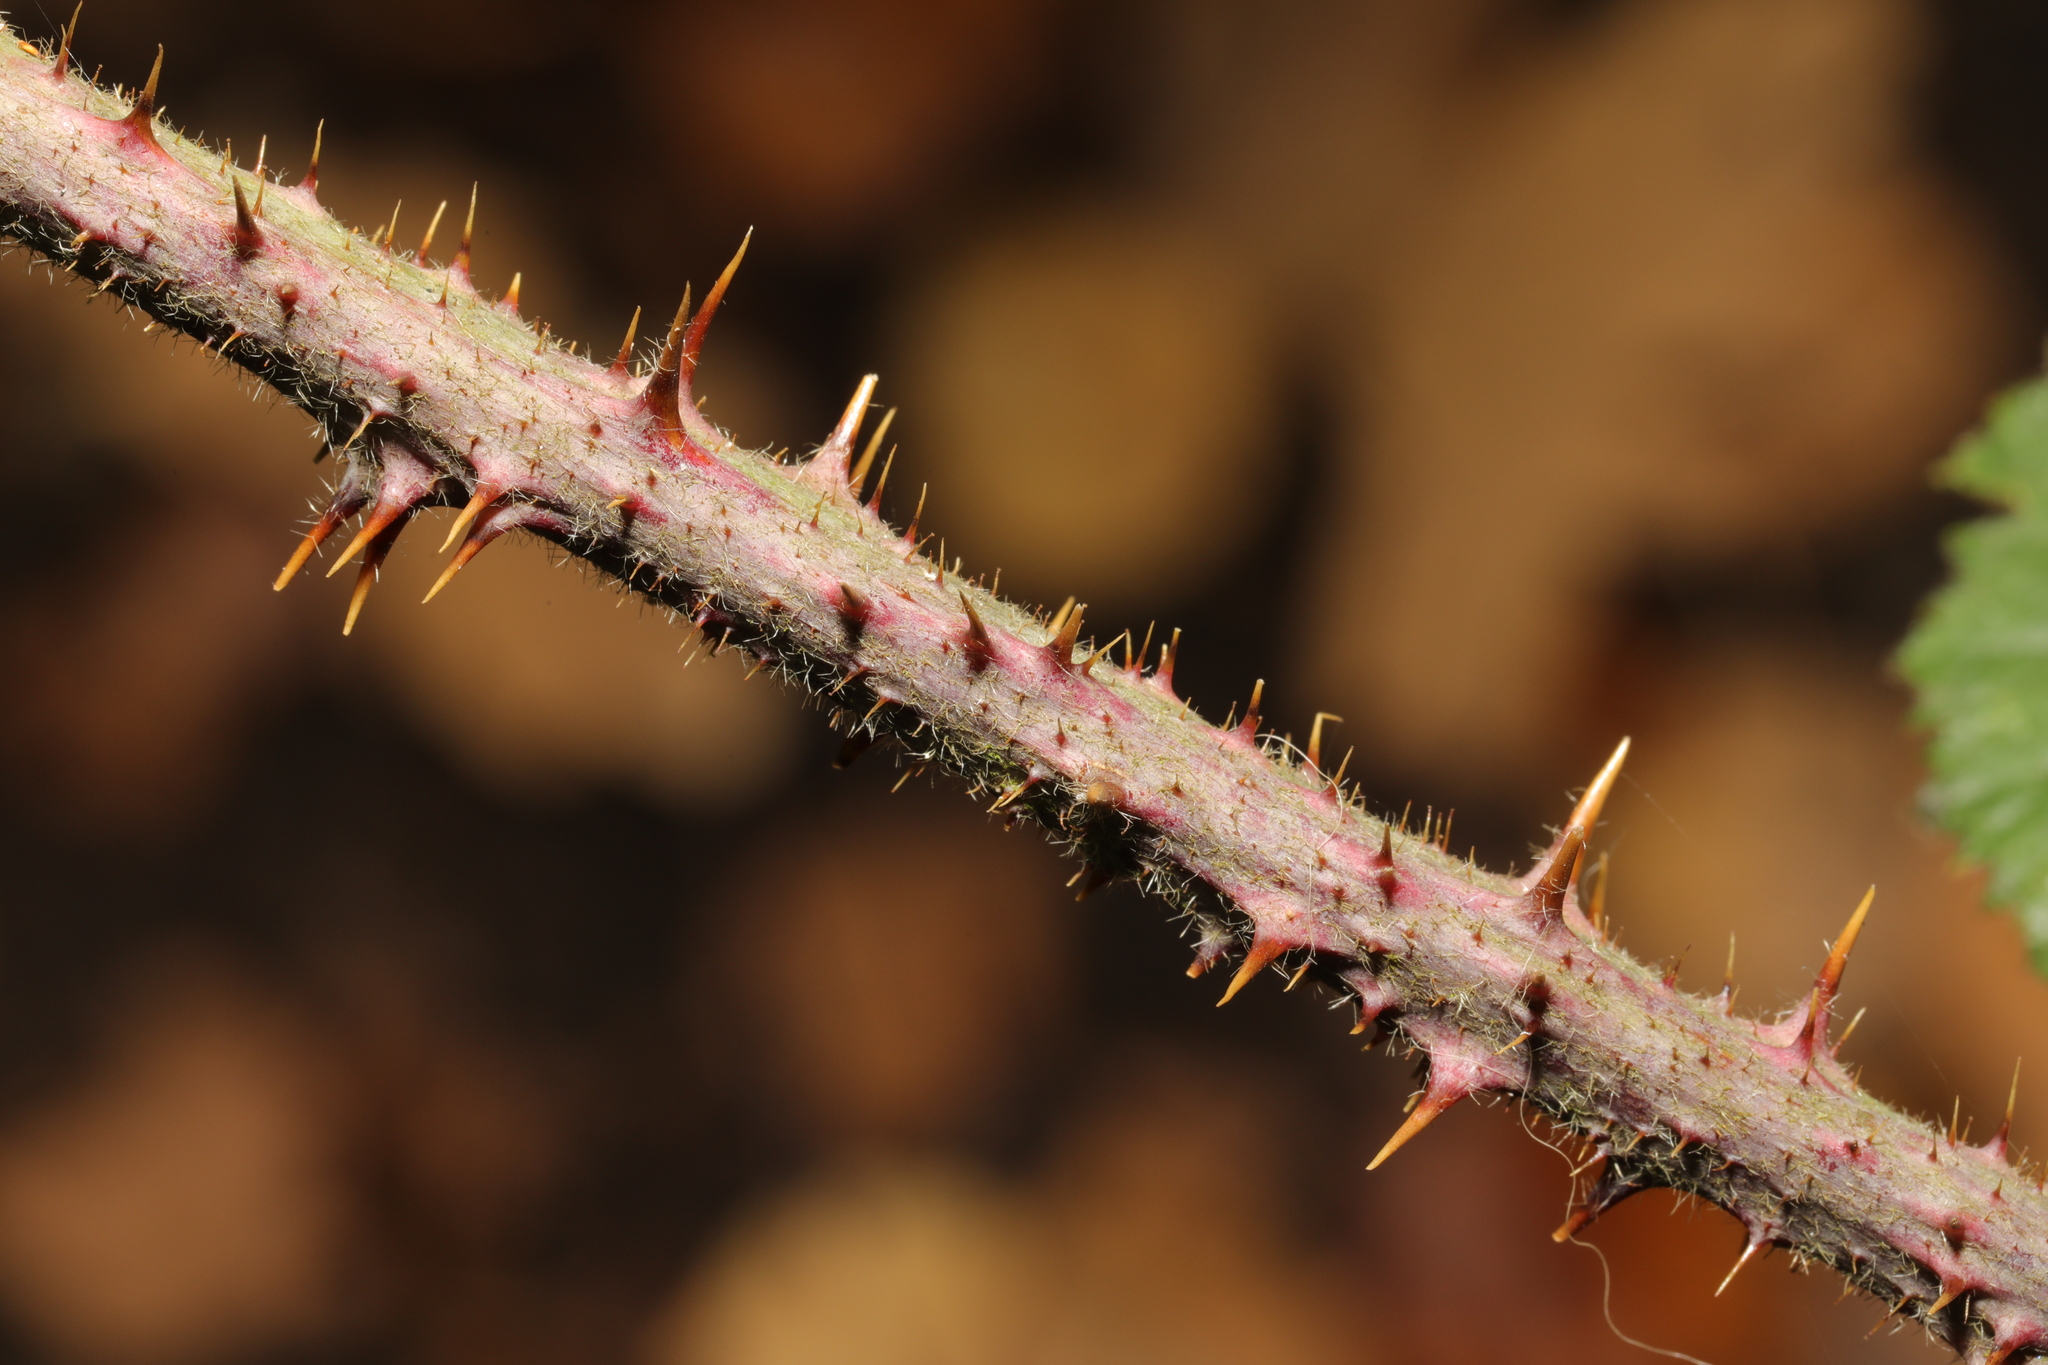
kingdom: Plantae
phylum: Tracheophyta
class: Magnoliopsida
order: Rosales
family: Rosaceae
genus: Rubus
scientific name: Rubus horrefactus
